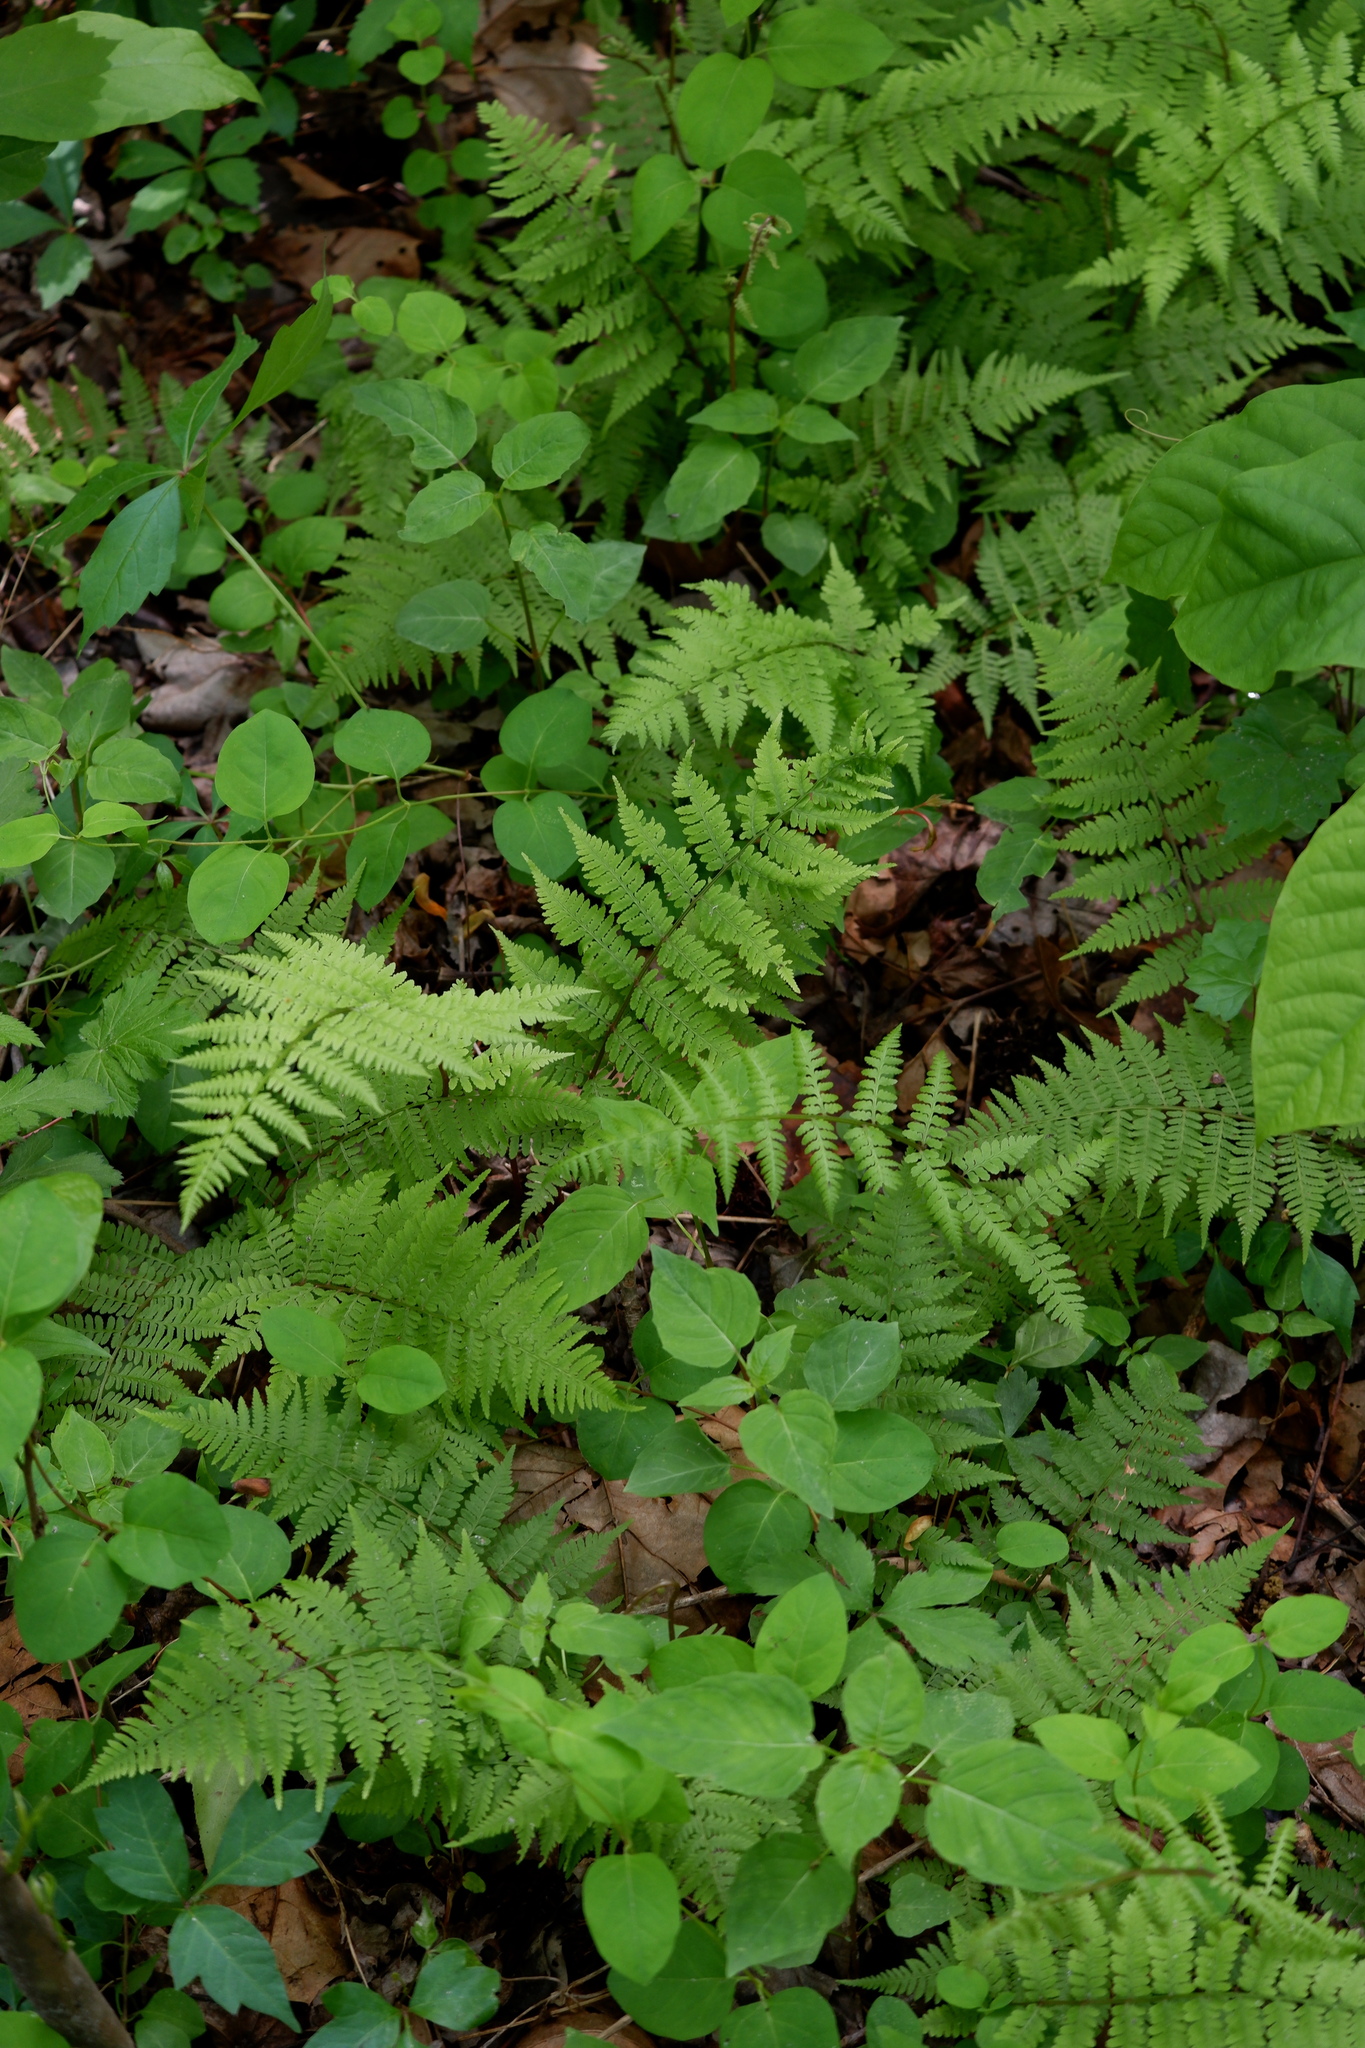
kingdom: Plantae
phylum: Tracheophyta
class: Polypodiopsida
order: Polypodiales
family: Athyriaceae
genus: Athyrium
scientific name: Athyrium asplenioides
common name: Southern lady fern
